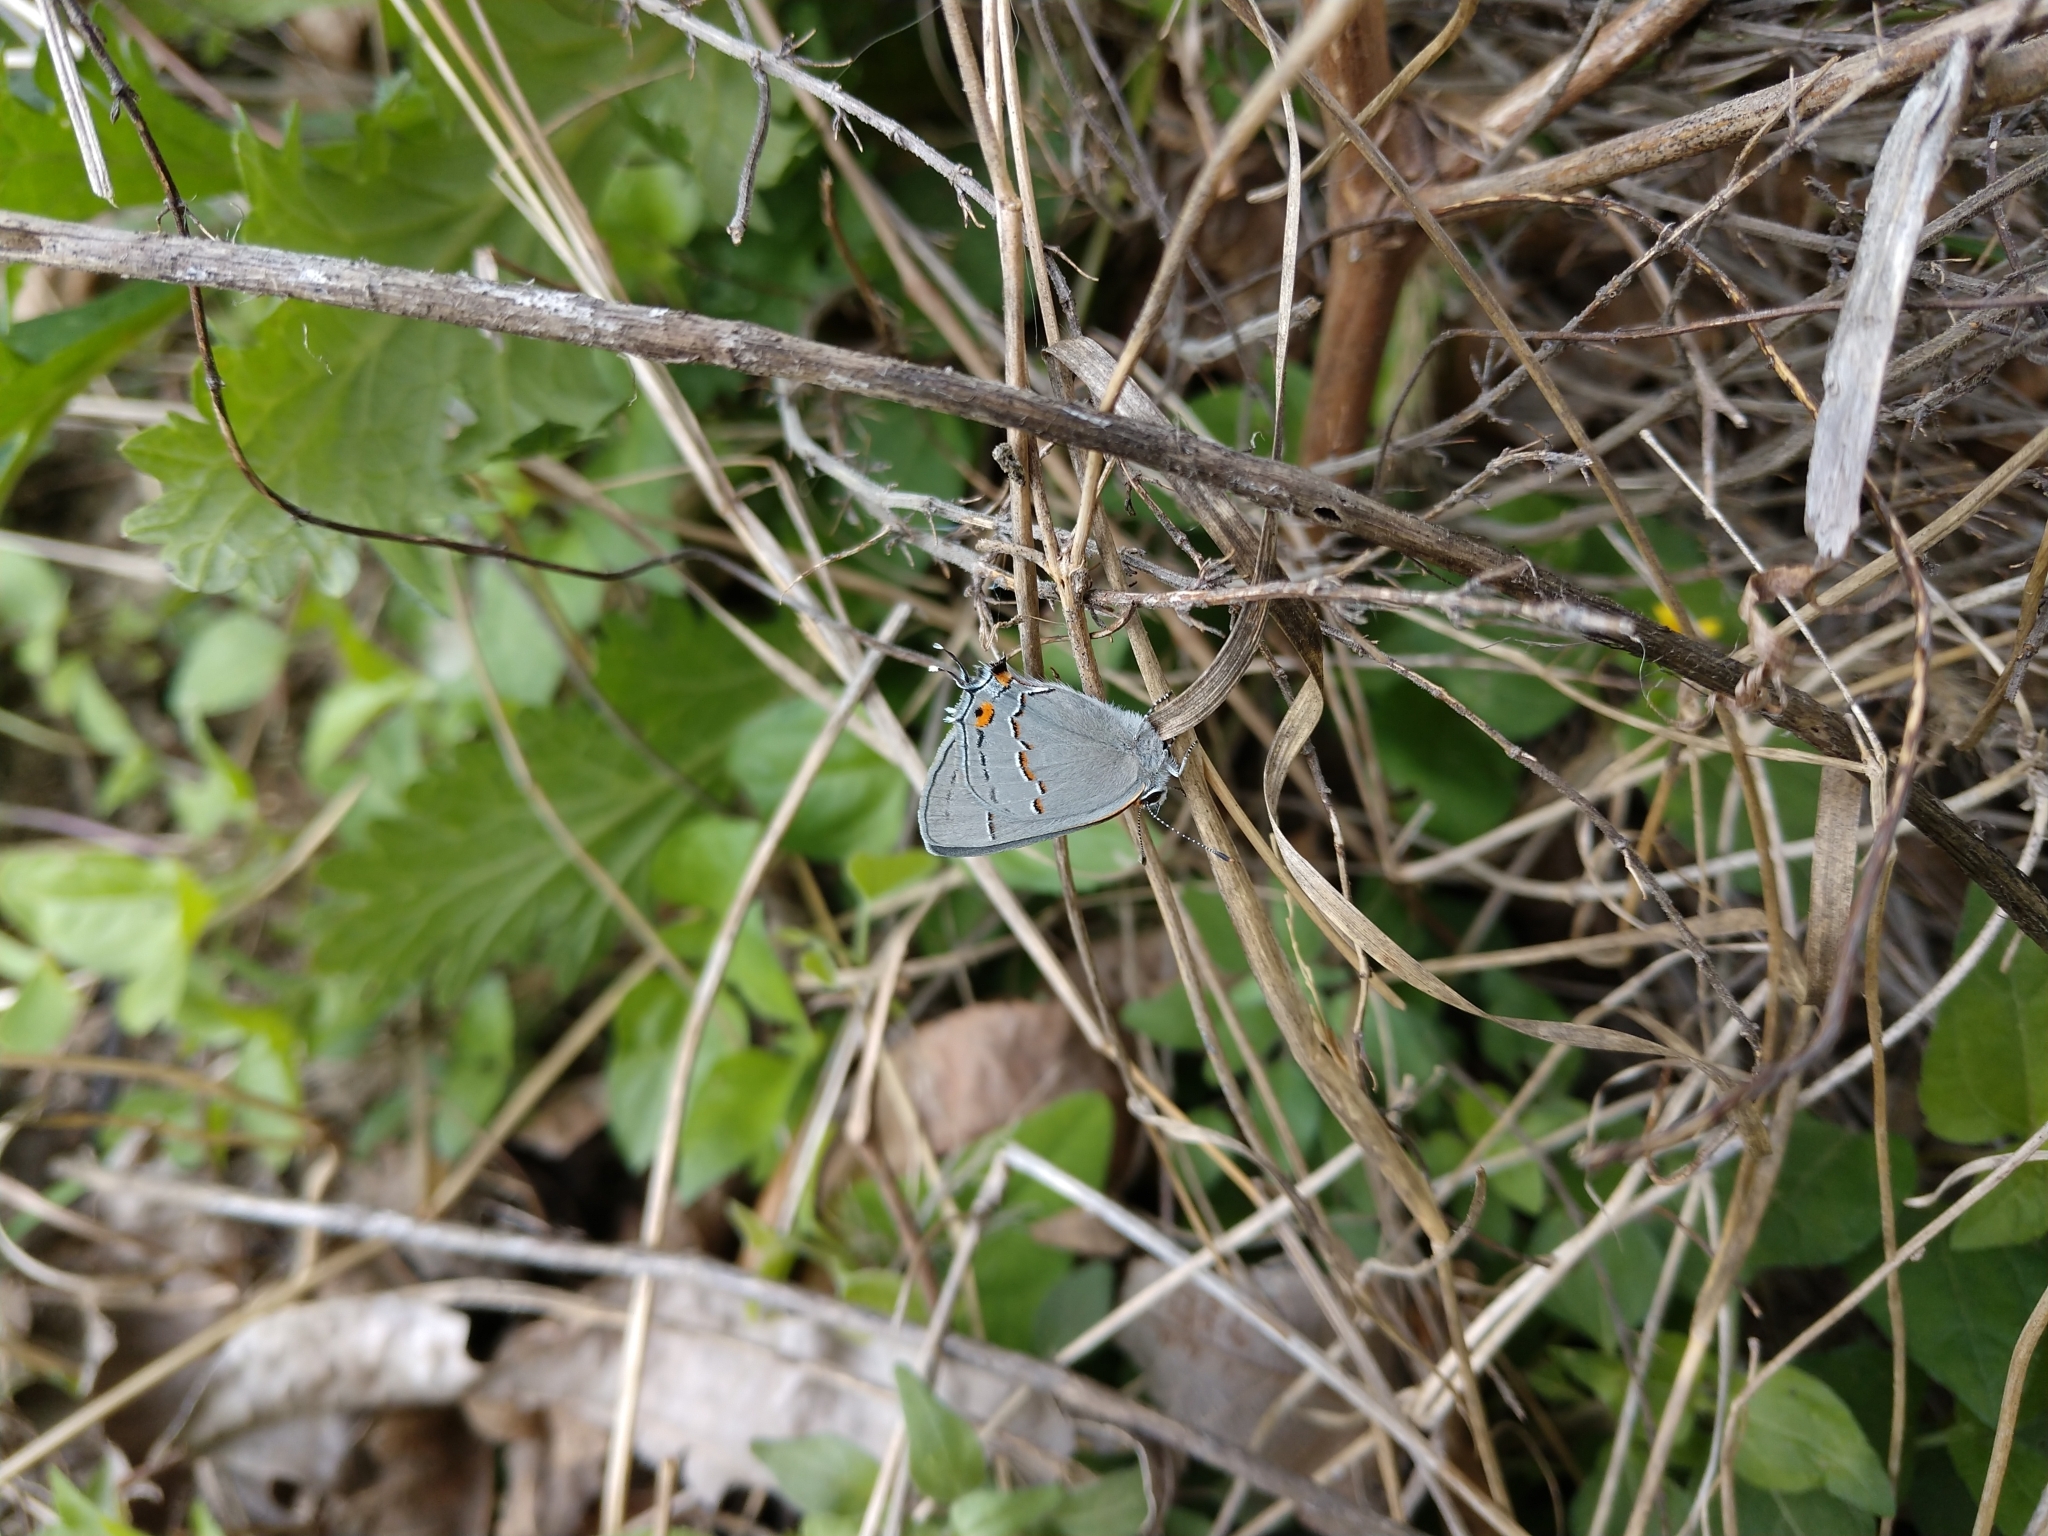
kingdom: Animalia
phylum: Arthropoda
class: Insecta
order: Lepidoptera
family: Lycaenidae
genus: Strymon
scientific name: Strymon melinus
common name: Gray hairstreak
